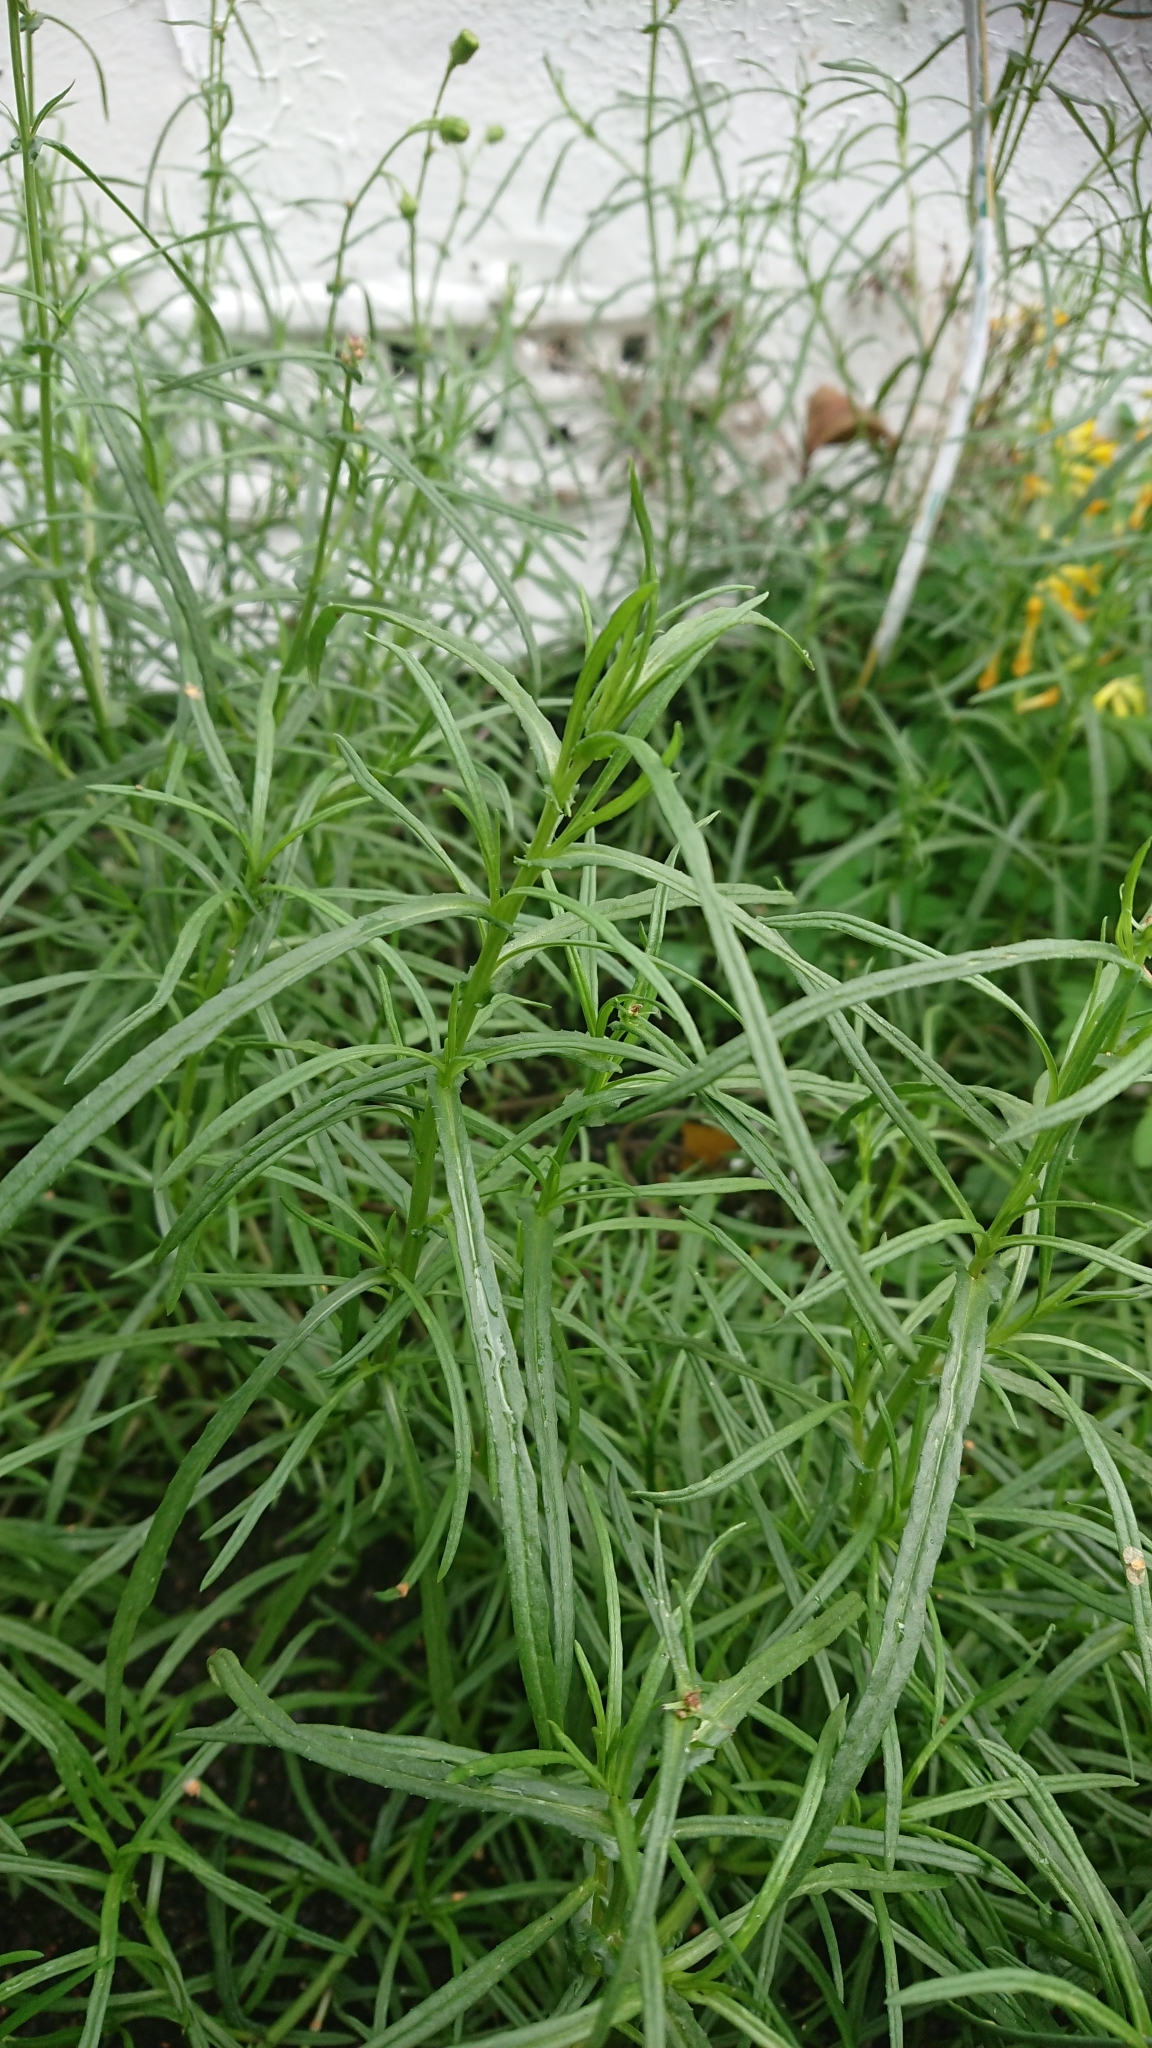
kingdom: Plantae
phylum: Tracheophyta
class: Magnoliopsida
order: Asterales
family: Asteraceae
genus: Senecio
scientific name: Senecio inaequidens
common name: Narrow-leaved ragwort
